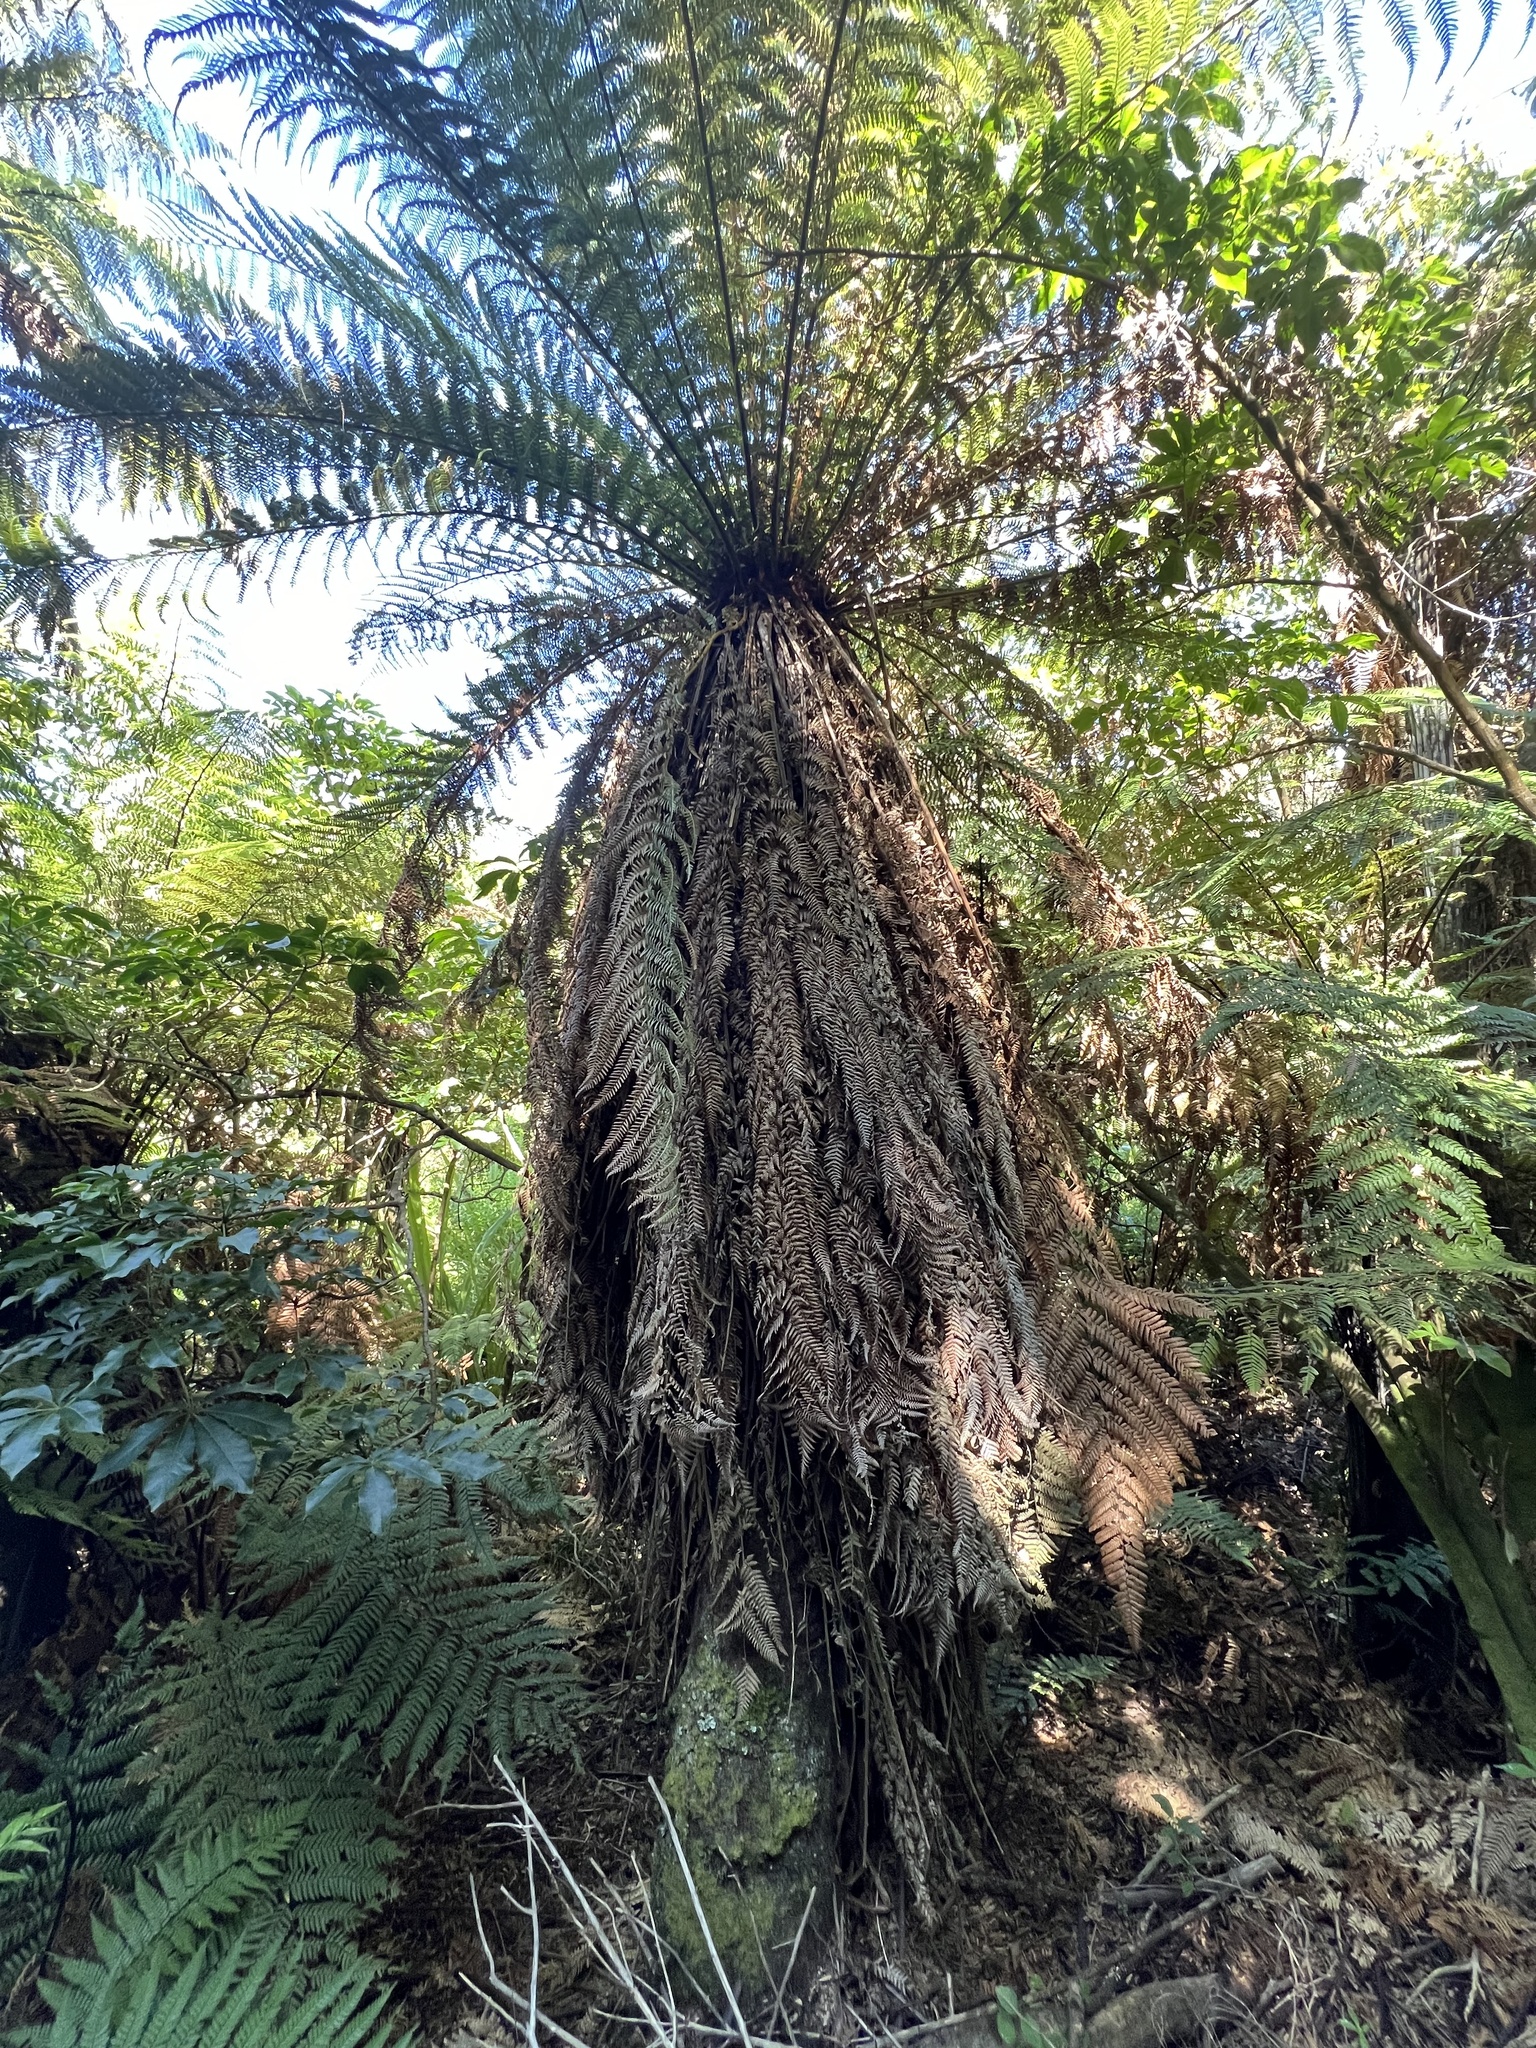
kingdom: Plantae
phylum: Tracheophyta
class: Polypodiopsida
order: Cyatheales
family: Dicksoniaceae
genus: Dicksonia
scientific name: Dicksonia fibrosa
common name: Golden tree fern
